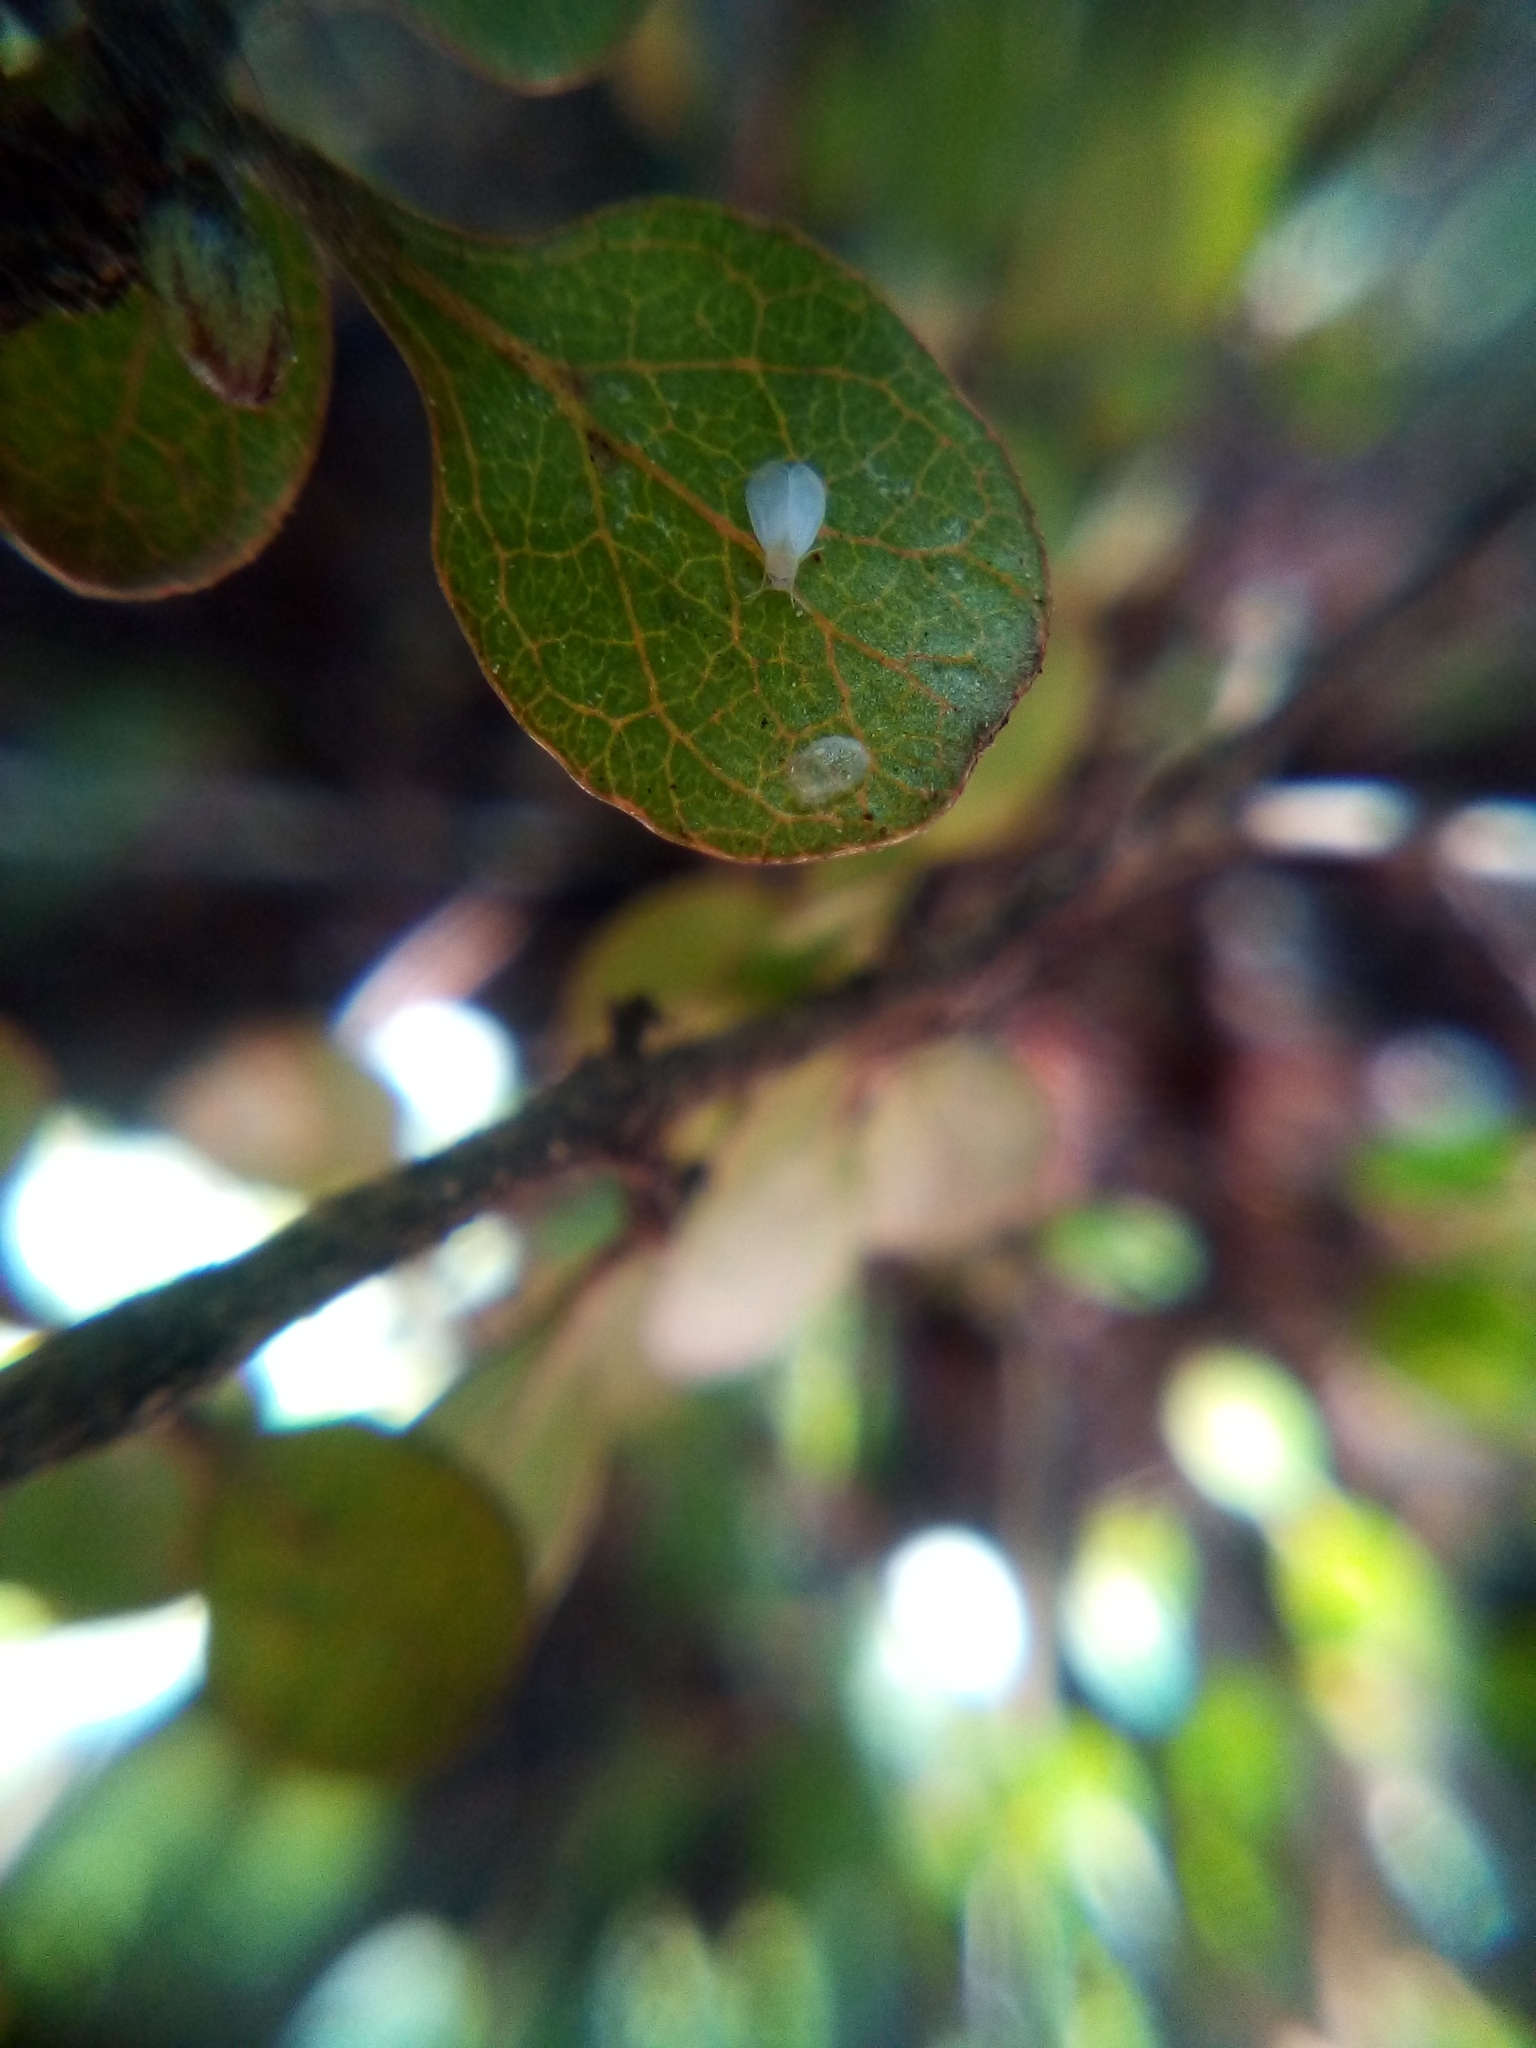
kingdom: Animalia
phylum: Arthropoda
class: Insecta
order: Hemiptera
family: Aleyrodidae
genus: Asterochiton
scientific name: Asterochiton rhamnoidis
